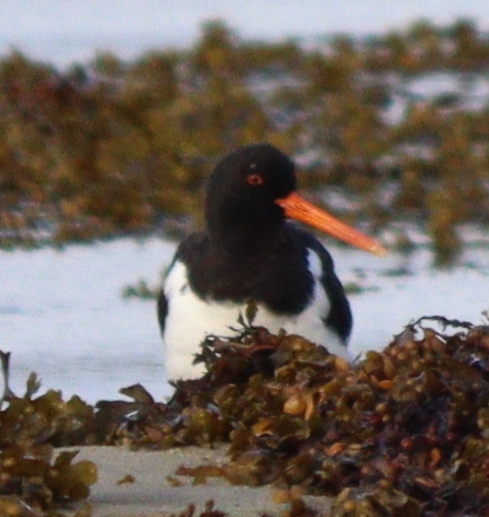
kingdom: Animalia
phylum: Chordata
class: Aves
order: Charadriiformes
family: Haematopodidae
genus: Haematopus
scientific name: Haematopus ostralegus
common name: Eurasian oystercatcher
